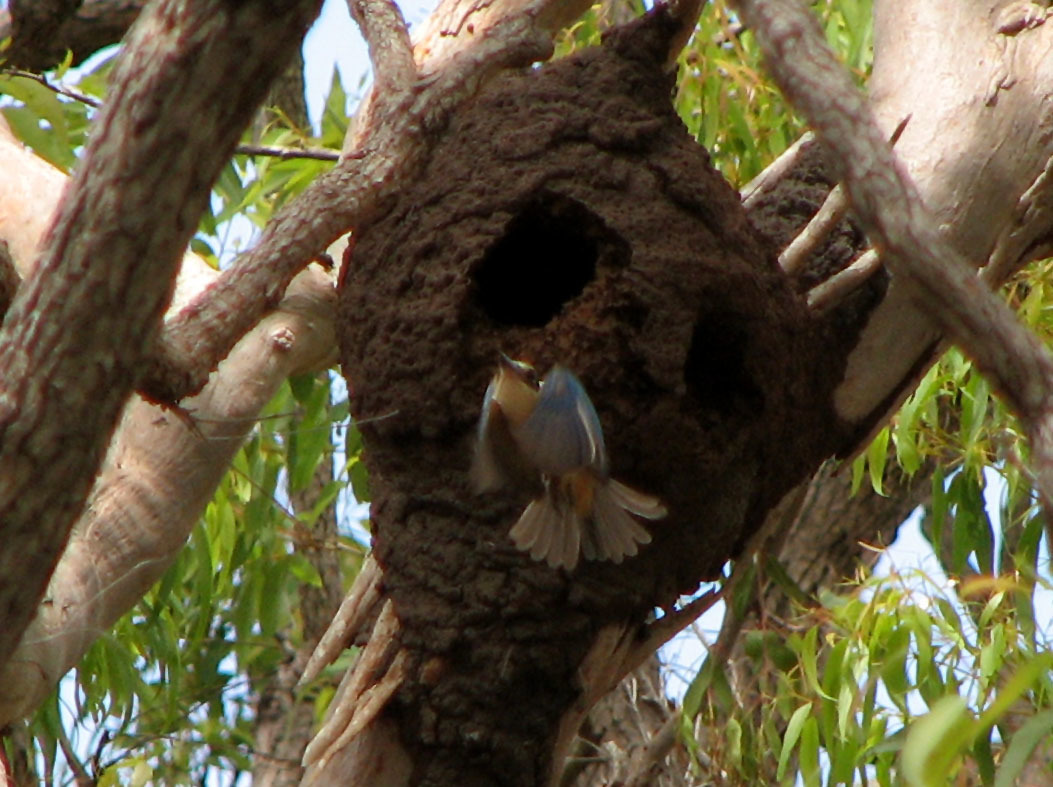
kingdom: Animalia
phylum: Chordata
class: Aves
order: Coraciiformes
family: Alcedinidae
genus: Todiramphus
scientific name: Todiramphus sanctus
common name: Sacred kingfisher
